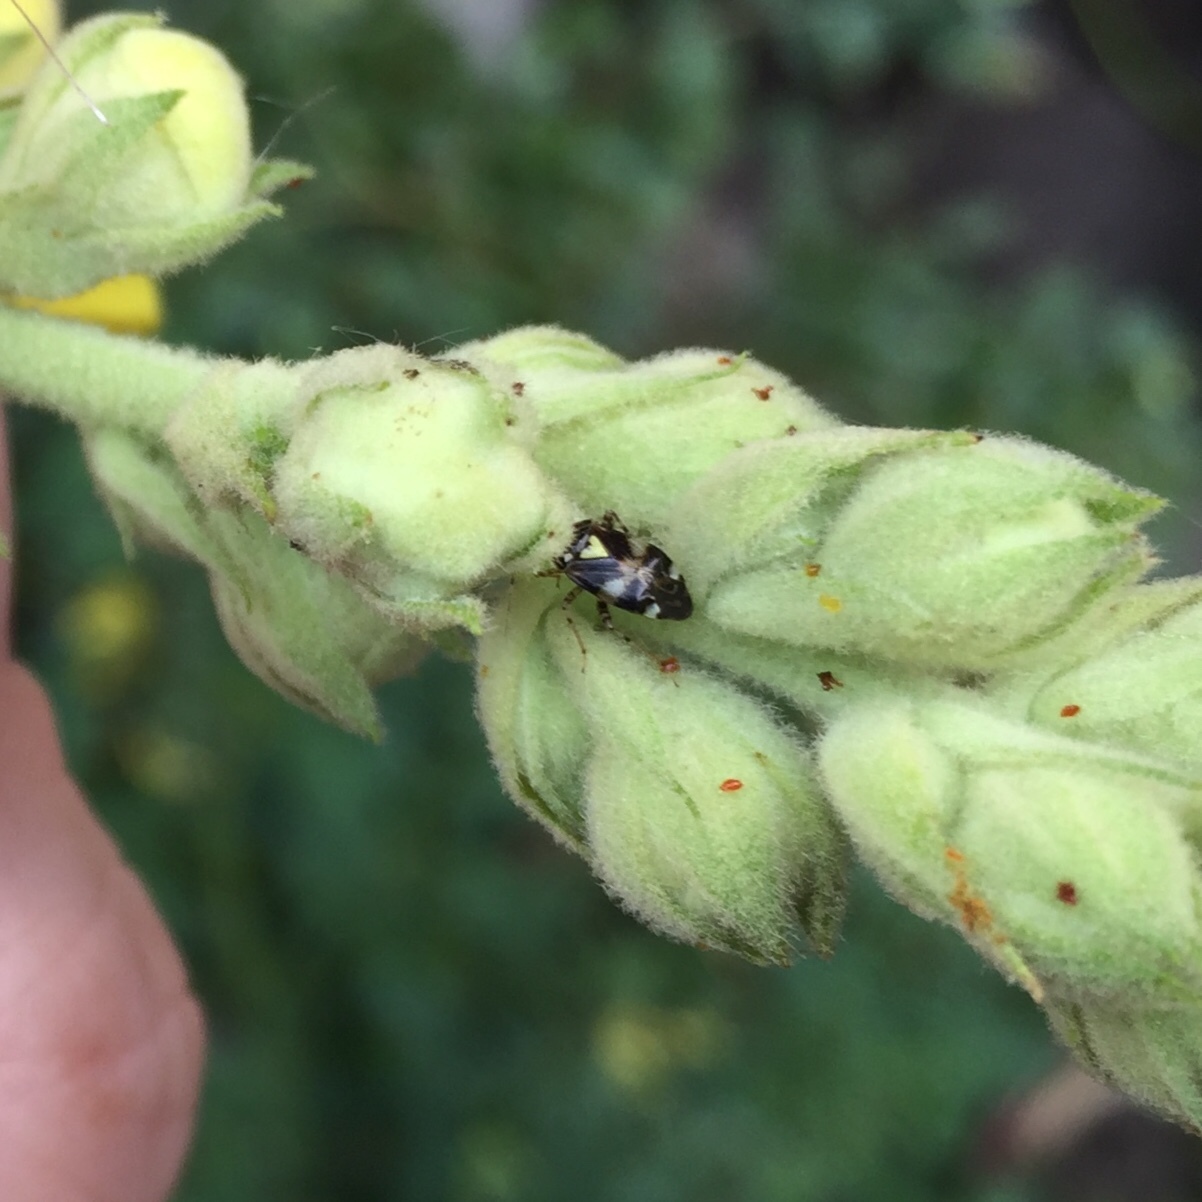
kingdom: Animalia
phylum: Arthropoda
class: Insecta
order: Hemiptera
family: Miridae
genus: Liocoris
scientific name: Liocoris tripustulatus
